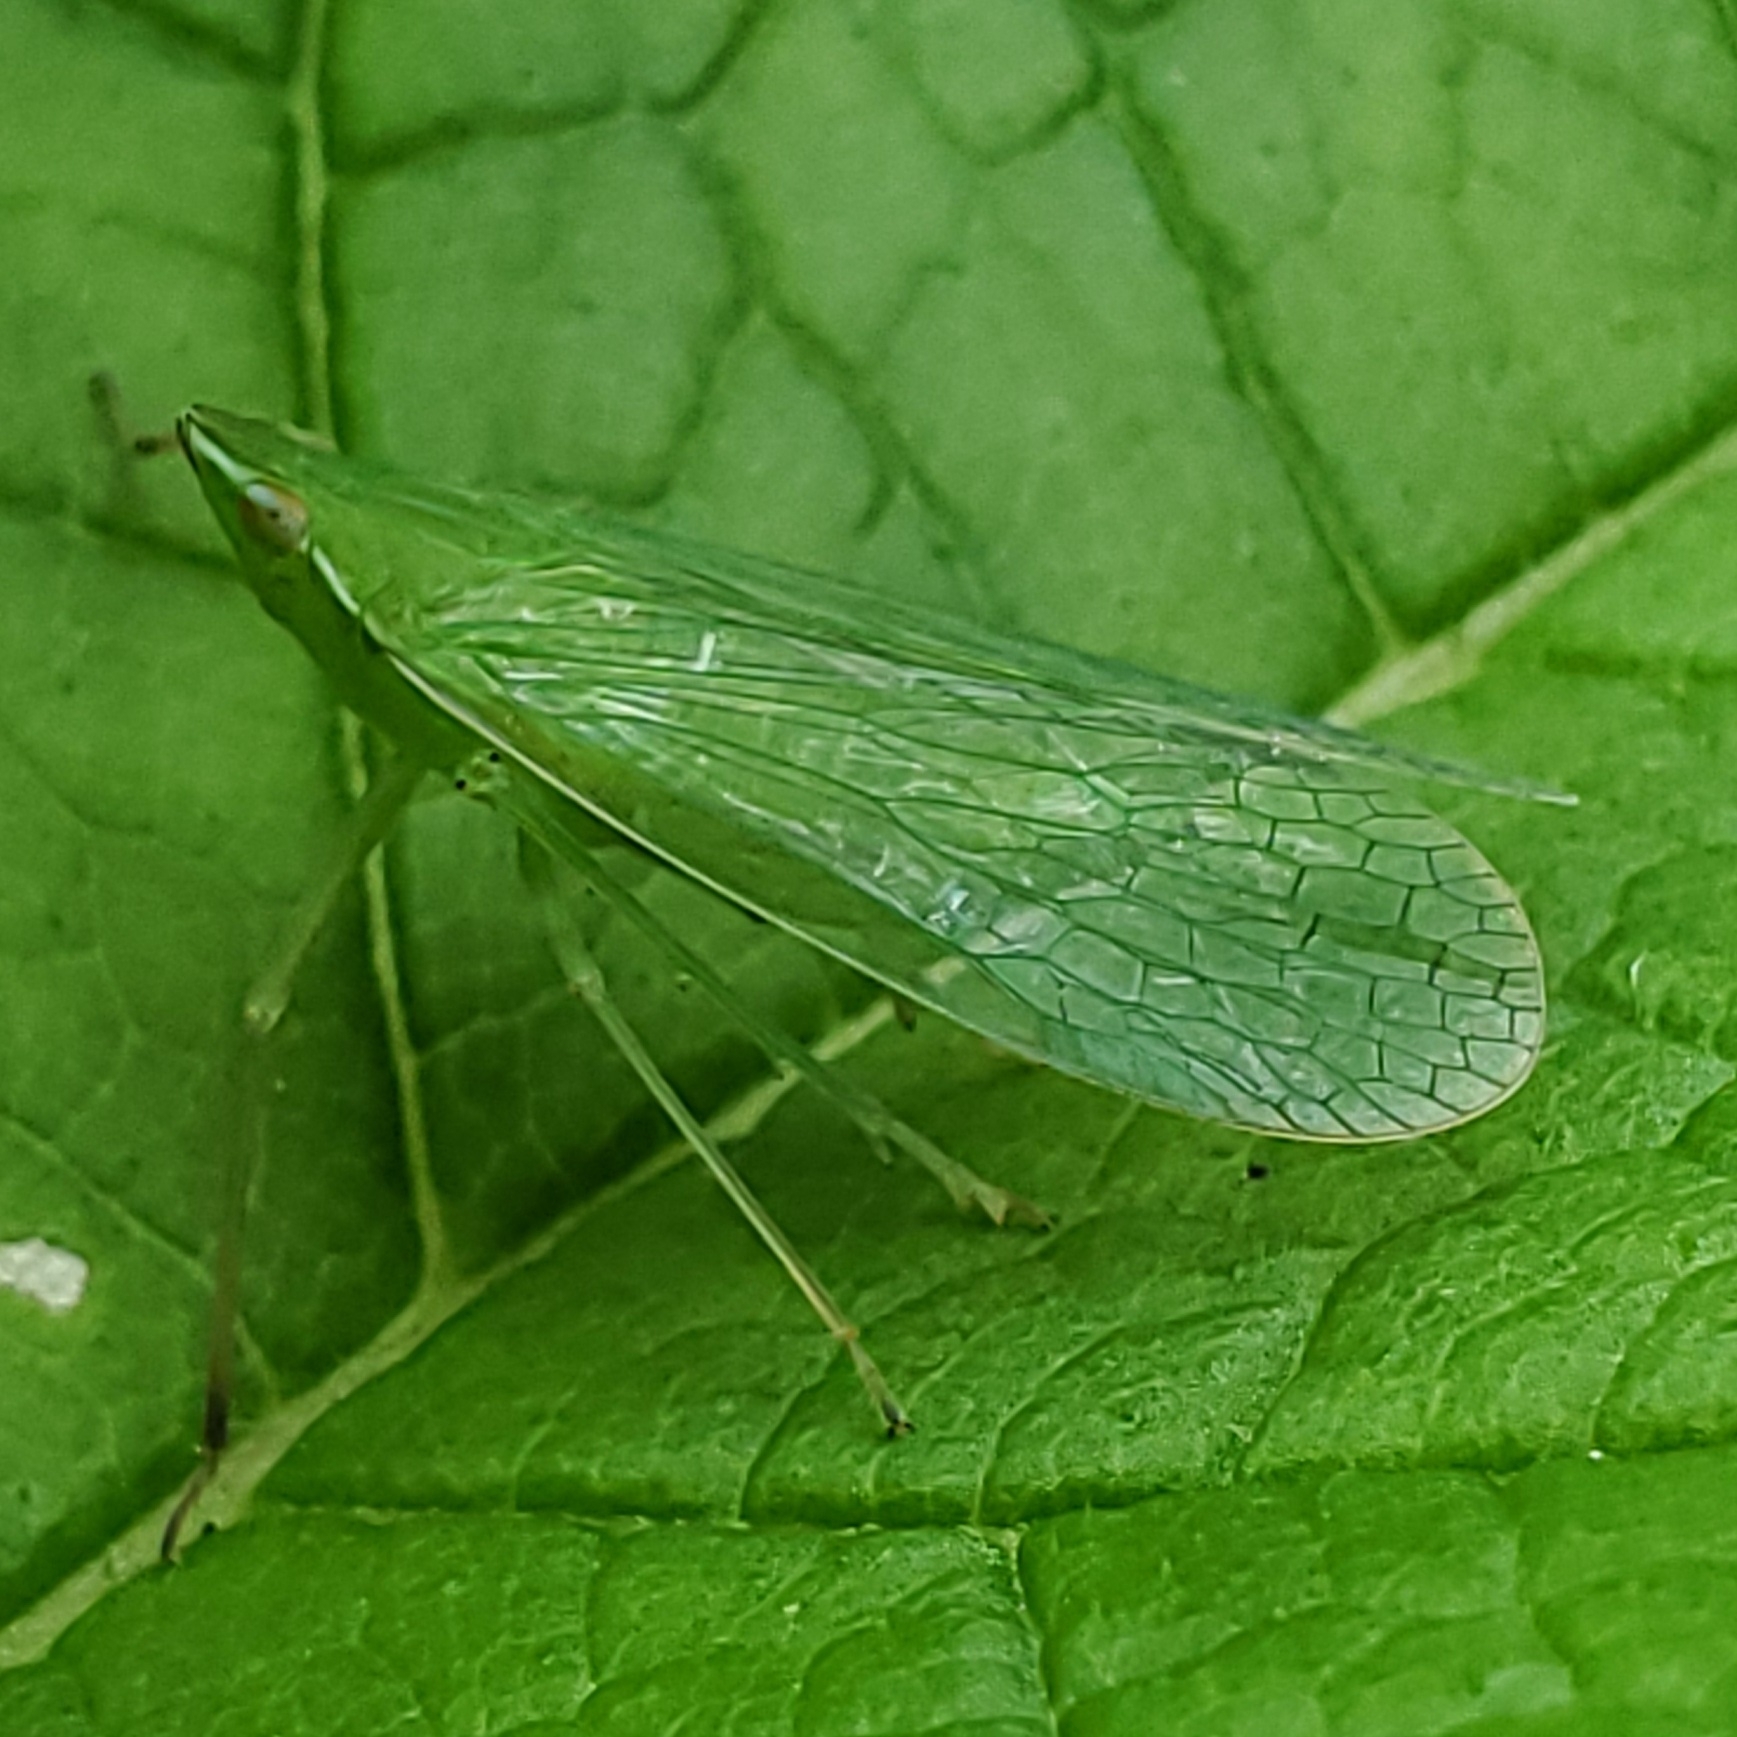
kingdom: Animalia
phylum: Arthropoda
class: Insecta
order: Hemiptera
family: Dictyopharidae
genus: Nersia
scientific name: Nersia florida
